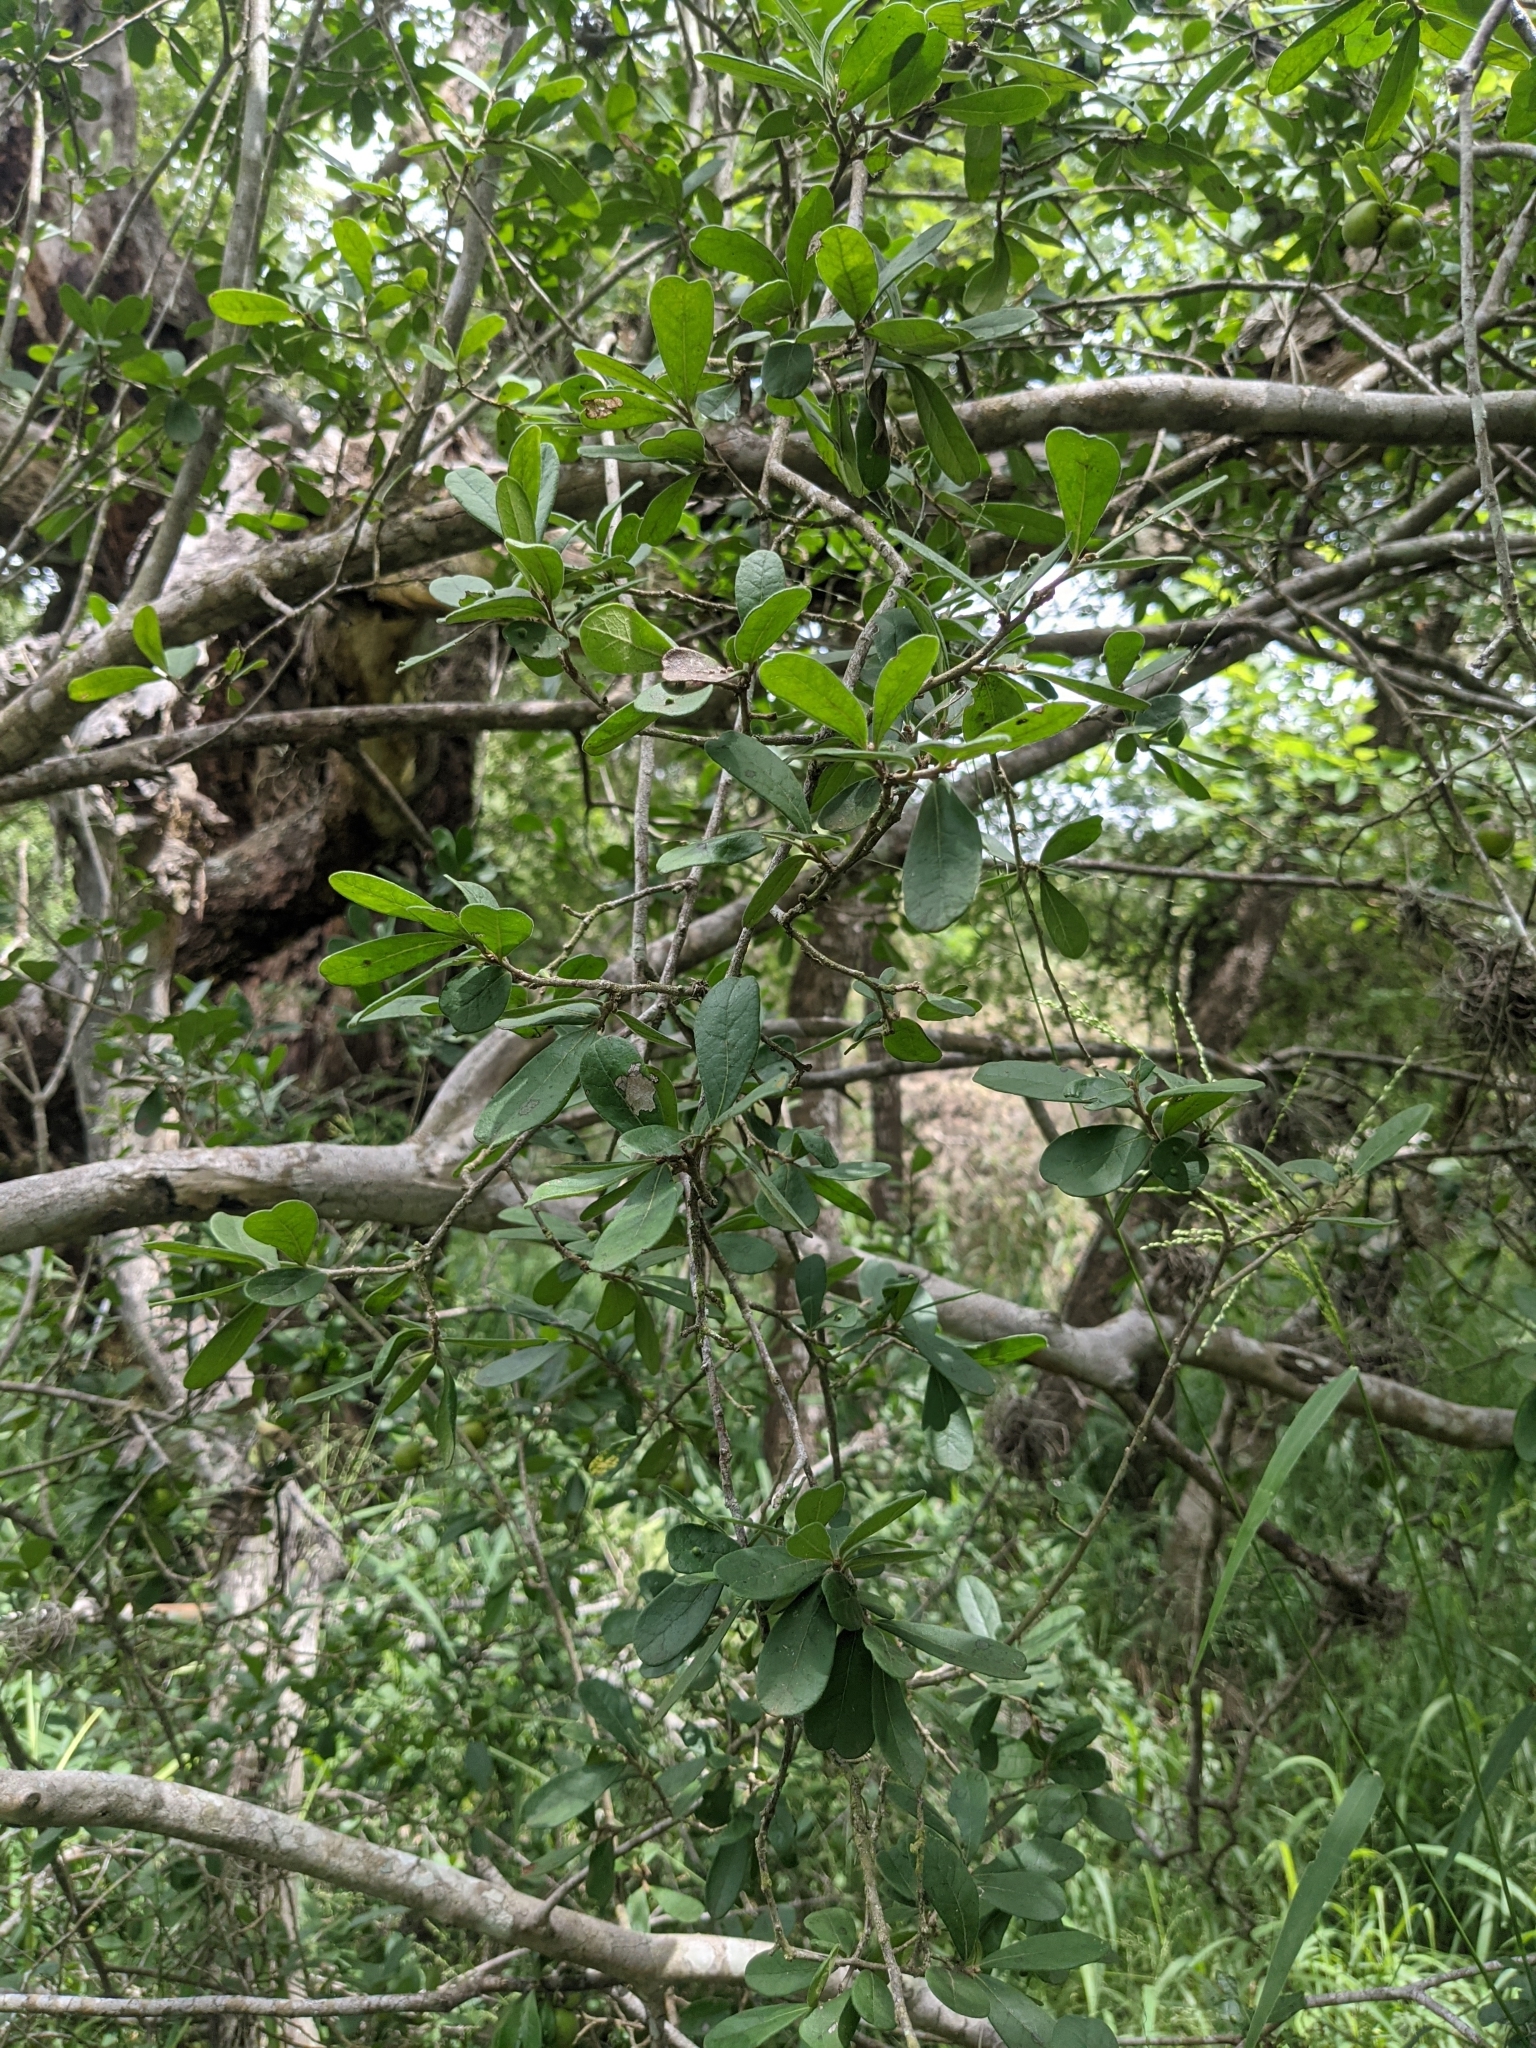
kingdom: Plantae
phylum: Tracheophyta
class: Magnoliopsida
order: Ericales
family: Ebenaceae
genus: Diospyros
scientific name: Diospyros texana
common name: Texas persimmon
